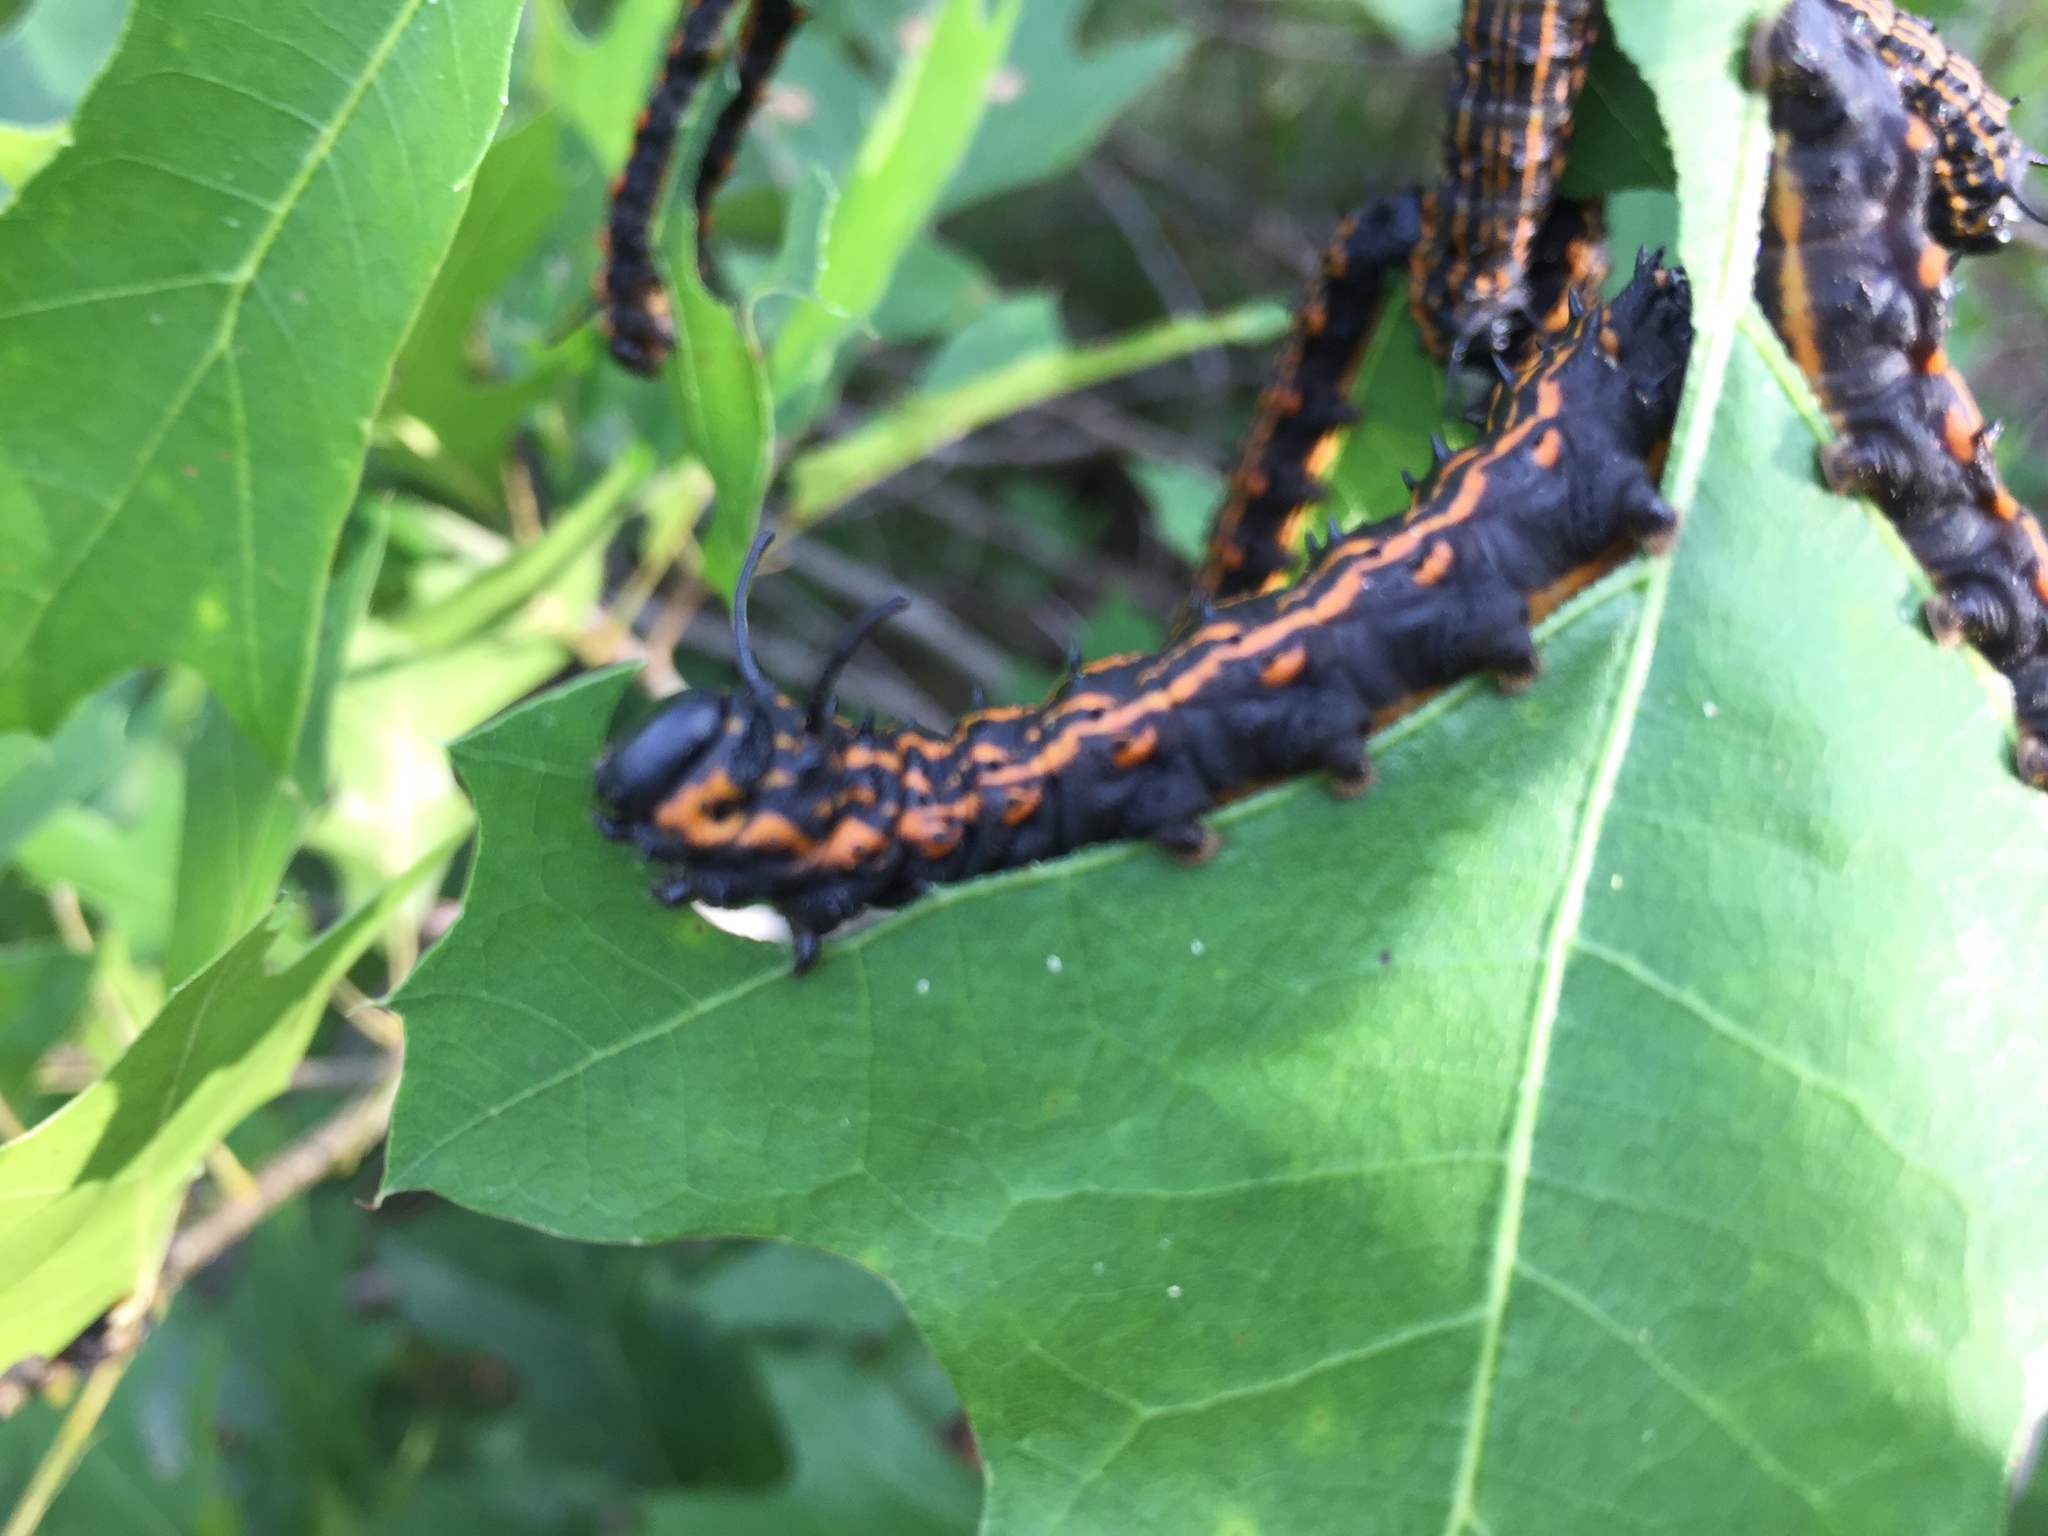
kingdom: Animalia
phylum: Arthropoda
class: Insecta
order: Lepidoptera
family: Saturniidae
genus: Anisota
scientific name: Anisota peigleri
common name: Peigler's oakworm moth
